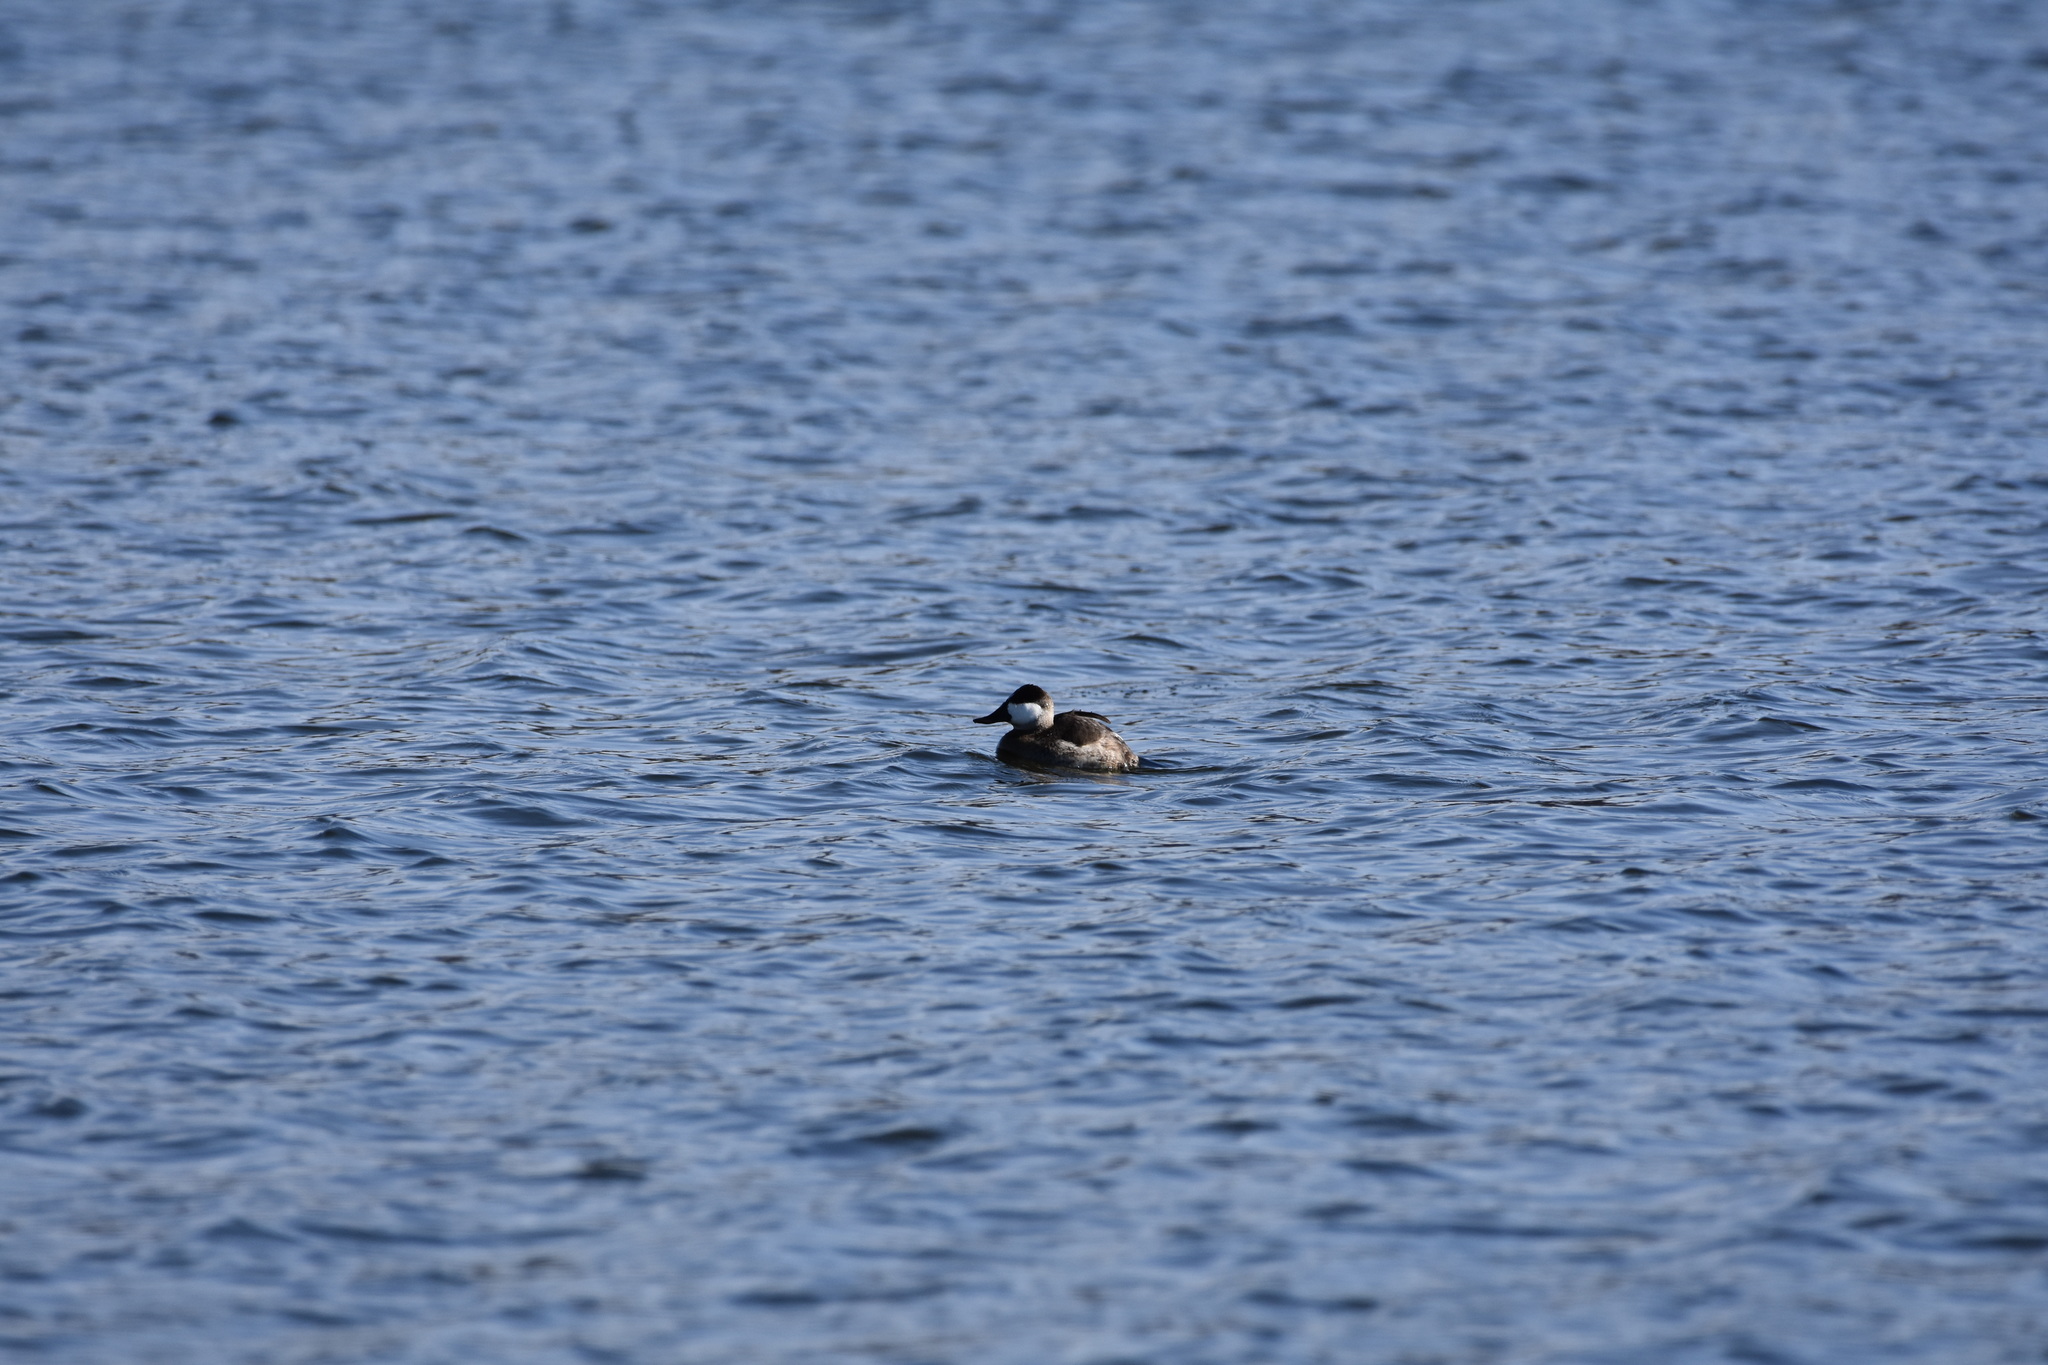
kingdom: Animalia
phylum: Chordata
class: Aves
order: Anseriformes
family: Anatidae
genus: Oxyura
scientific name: Oxyura jamaicensis
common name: Ruddy duck
